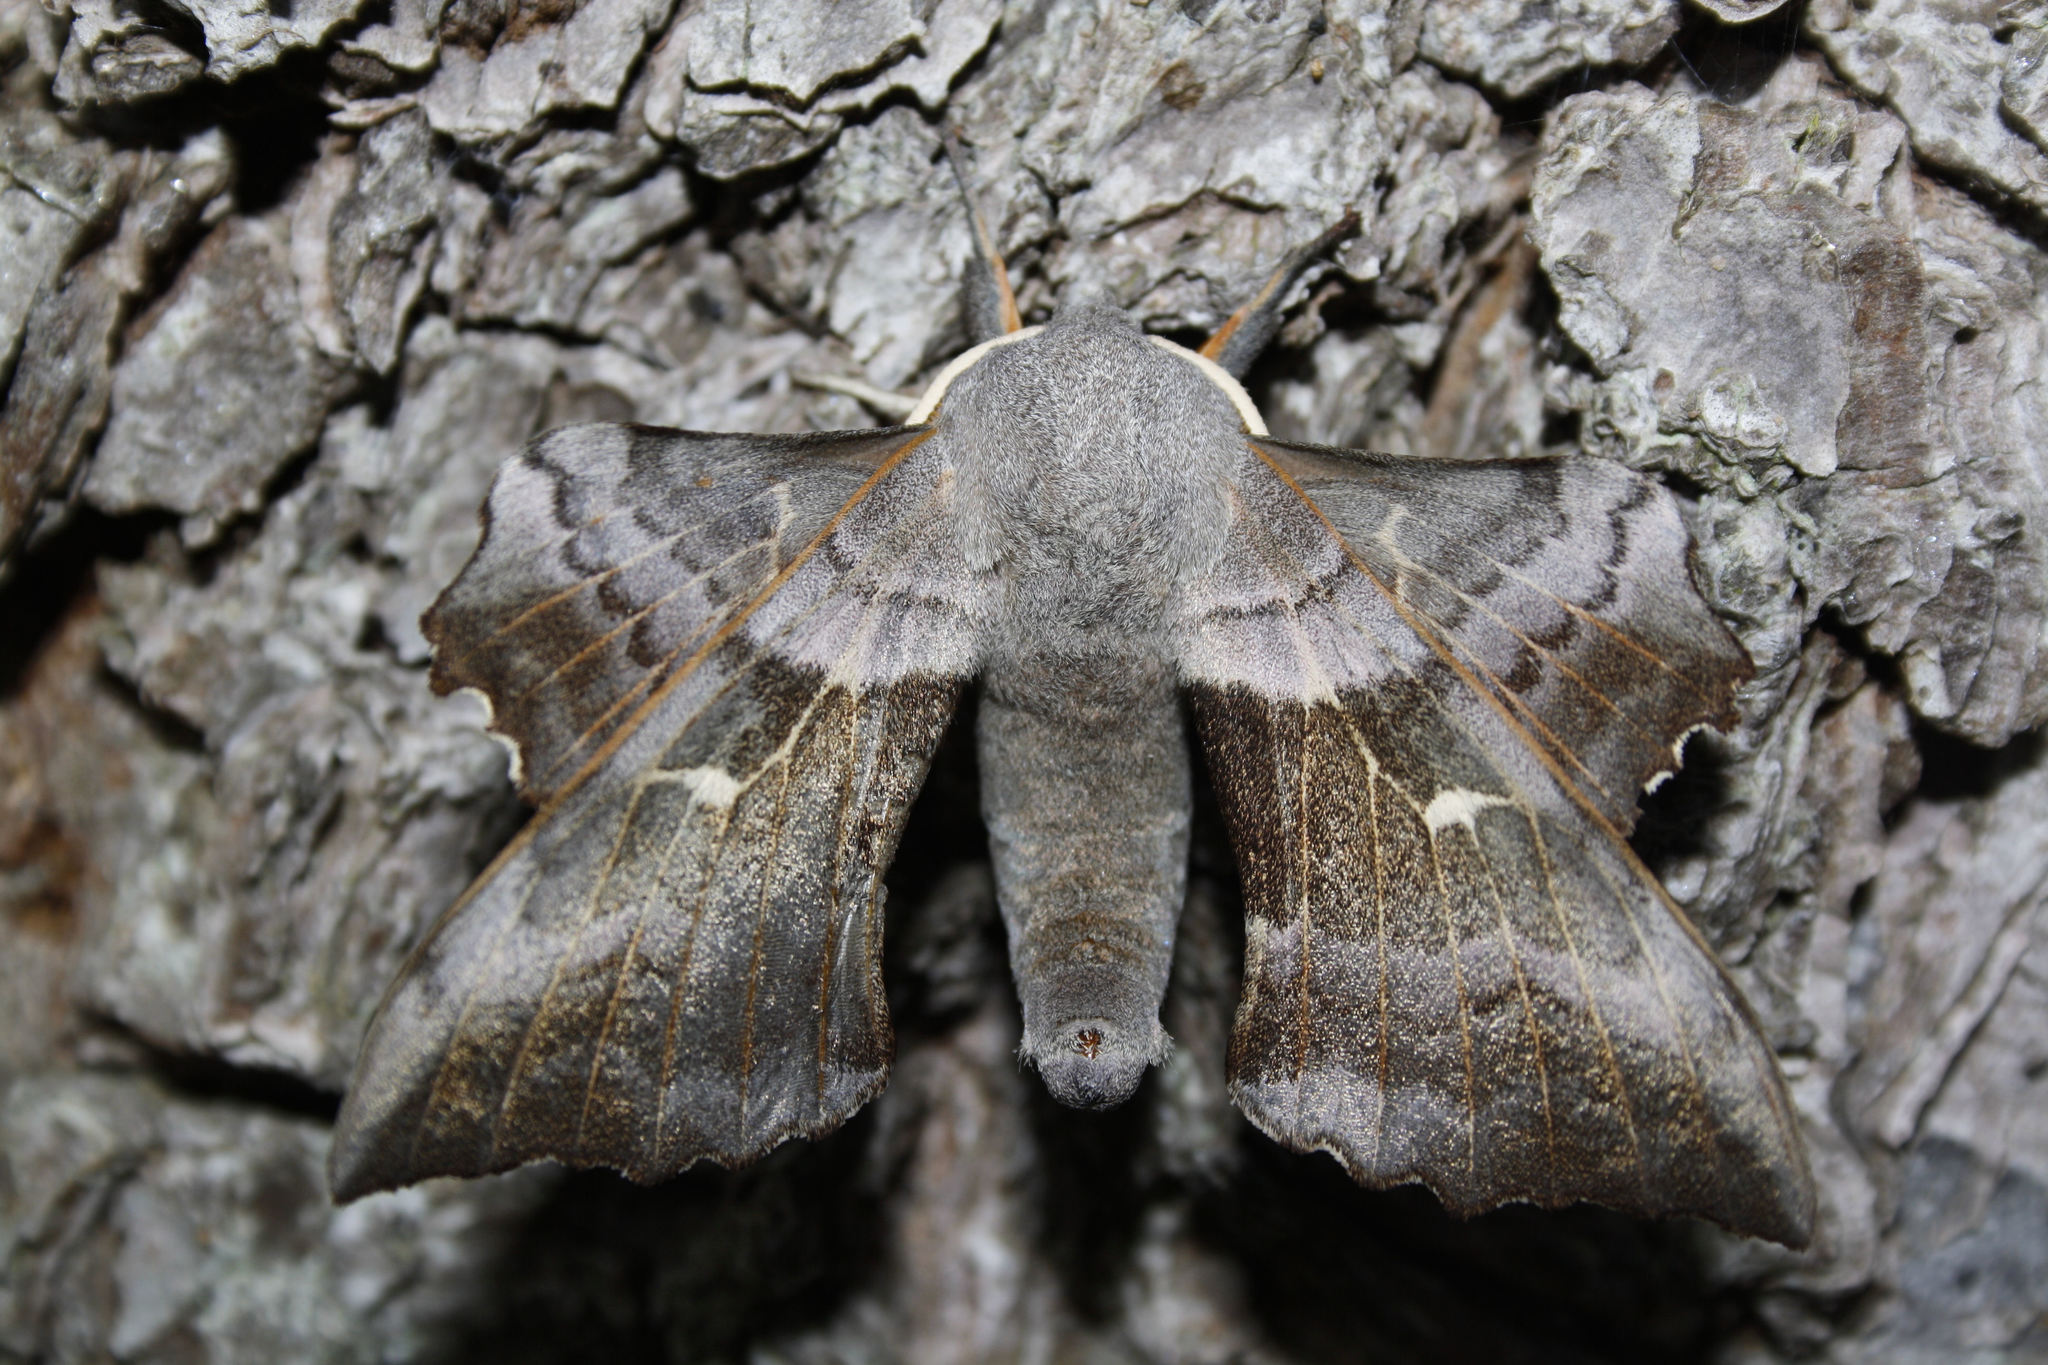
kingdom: Animalia
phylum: Arthropoda
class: Insecta
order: Lepidoptera
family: Sphingidae
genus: Laothoe
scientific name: Laothoe populi
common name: Poplar hawk-moth
